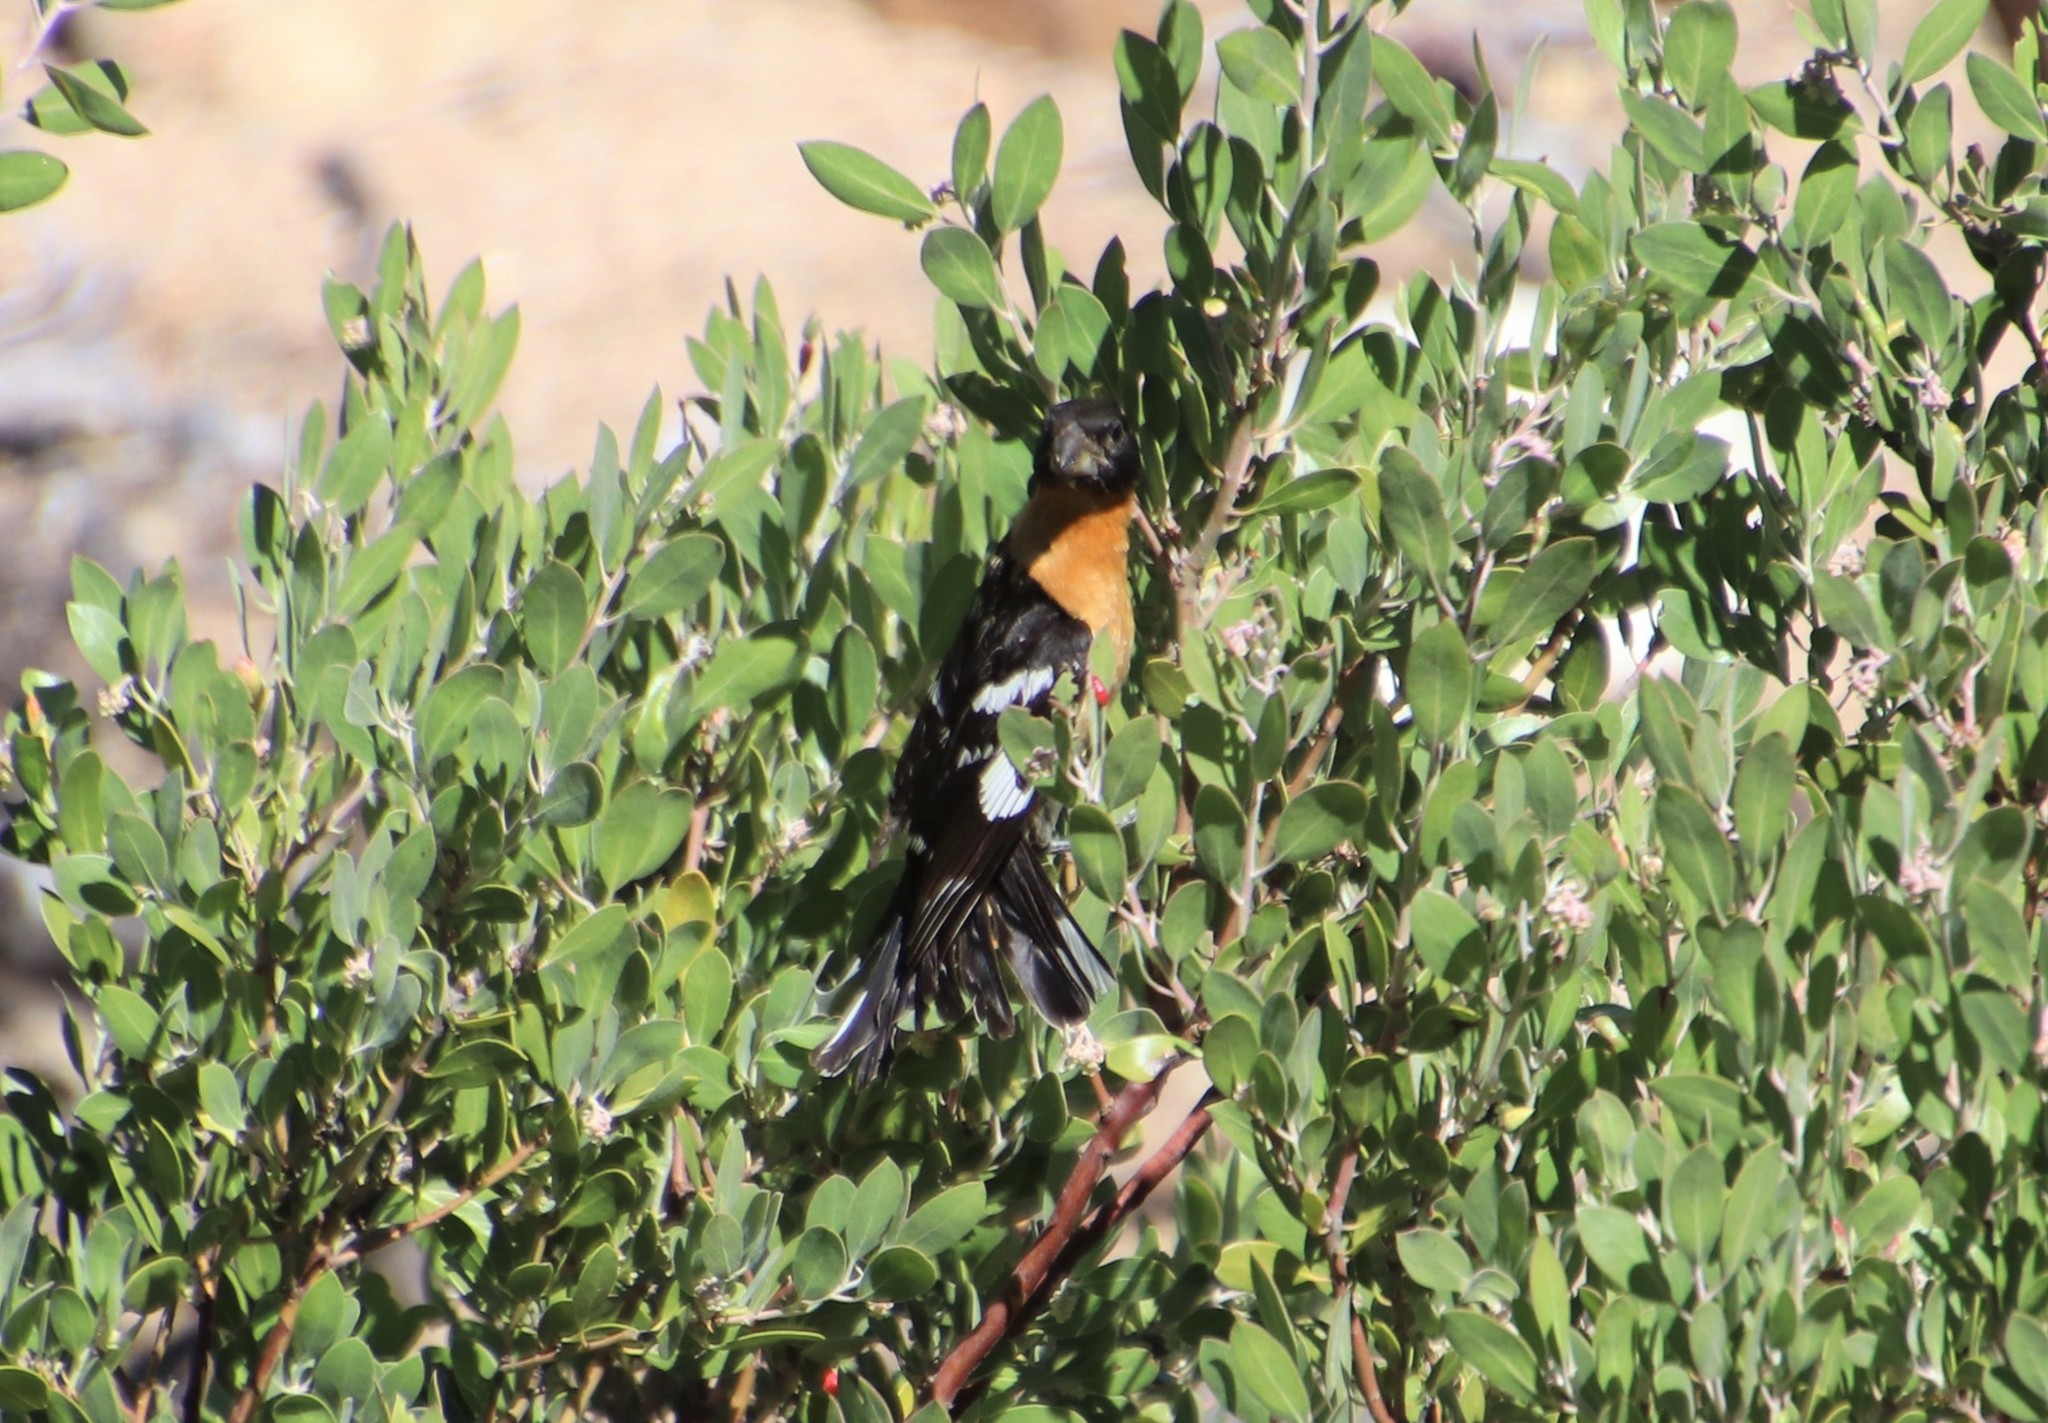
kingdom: Animalia
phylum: Chordata
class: Aves
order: Passeriformes
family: Cardinalidae
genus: Pheucticus
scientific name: Pheucticus melanocephalus
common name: Black-headed grosbeak
